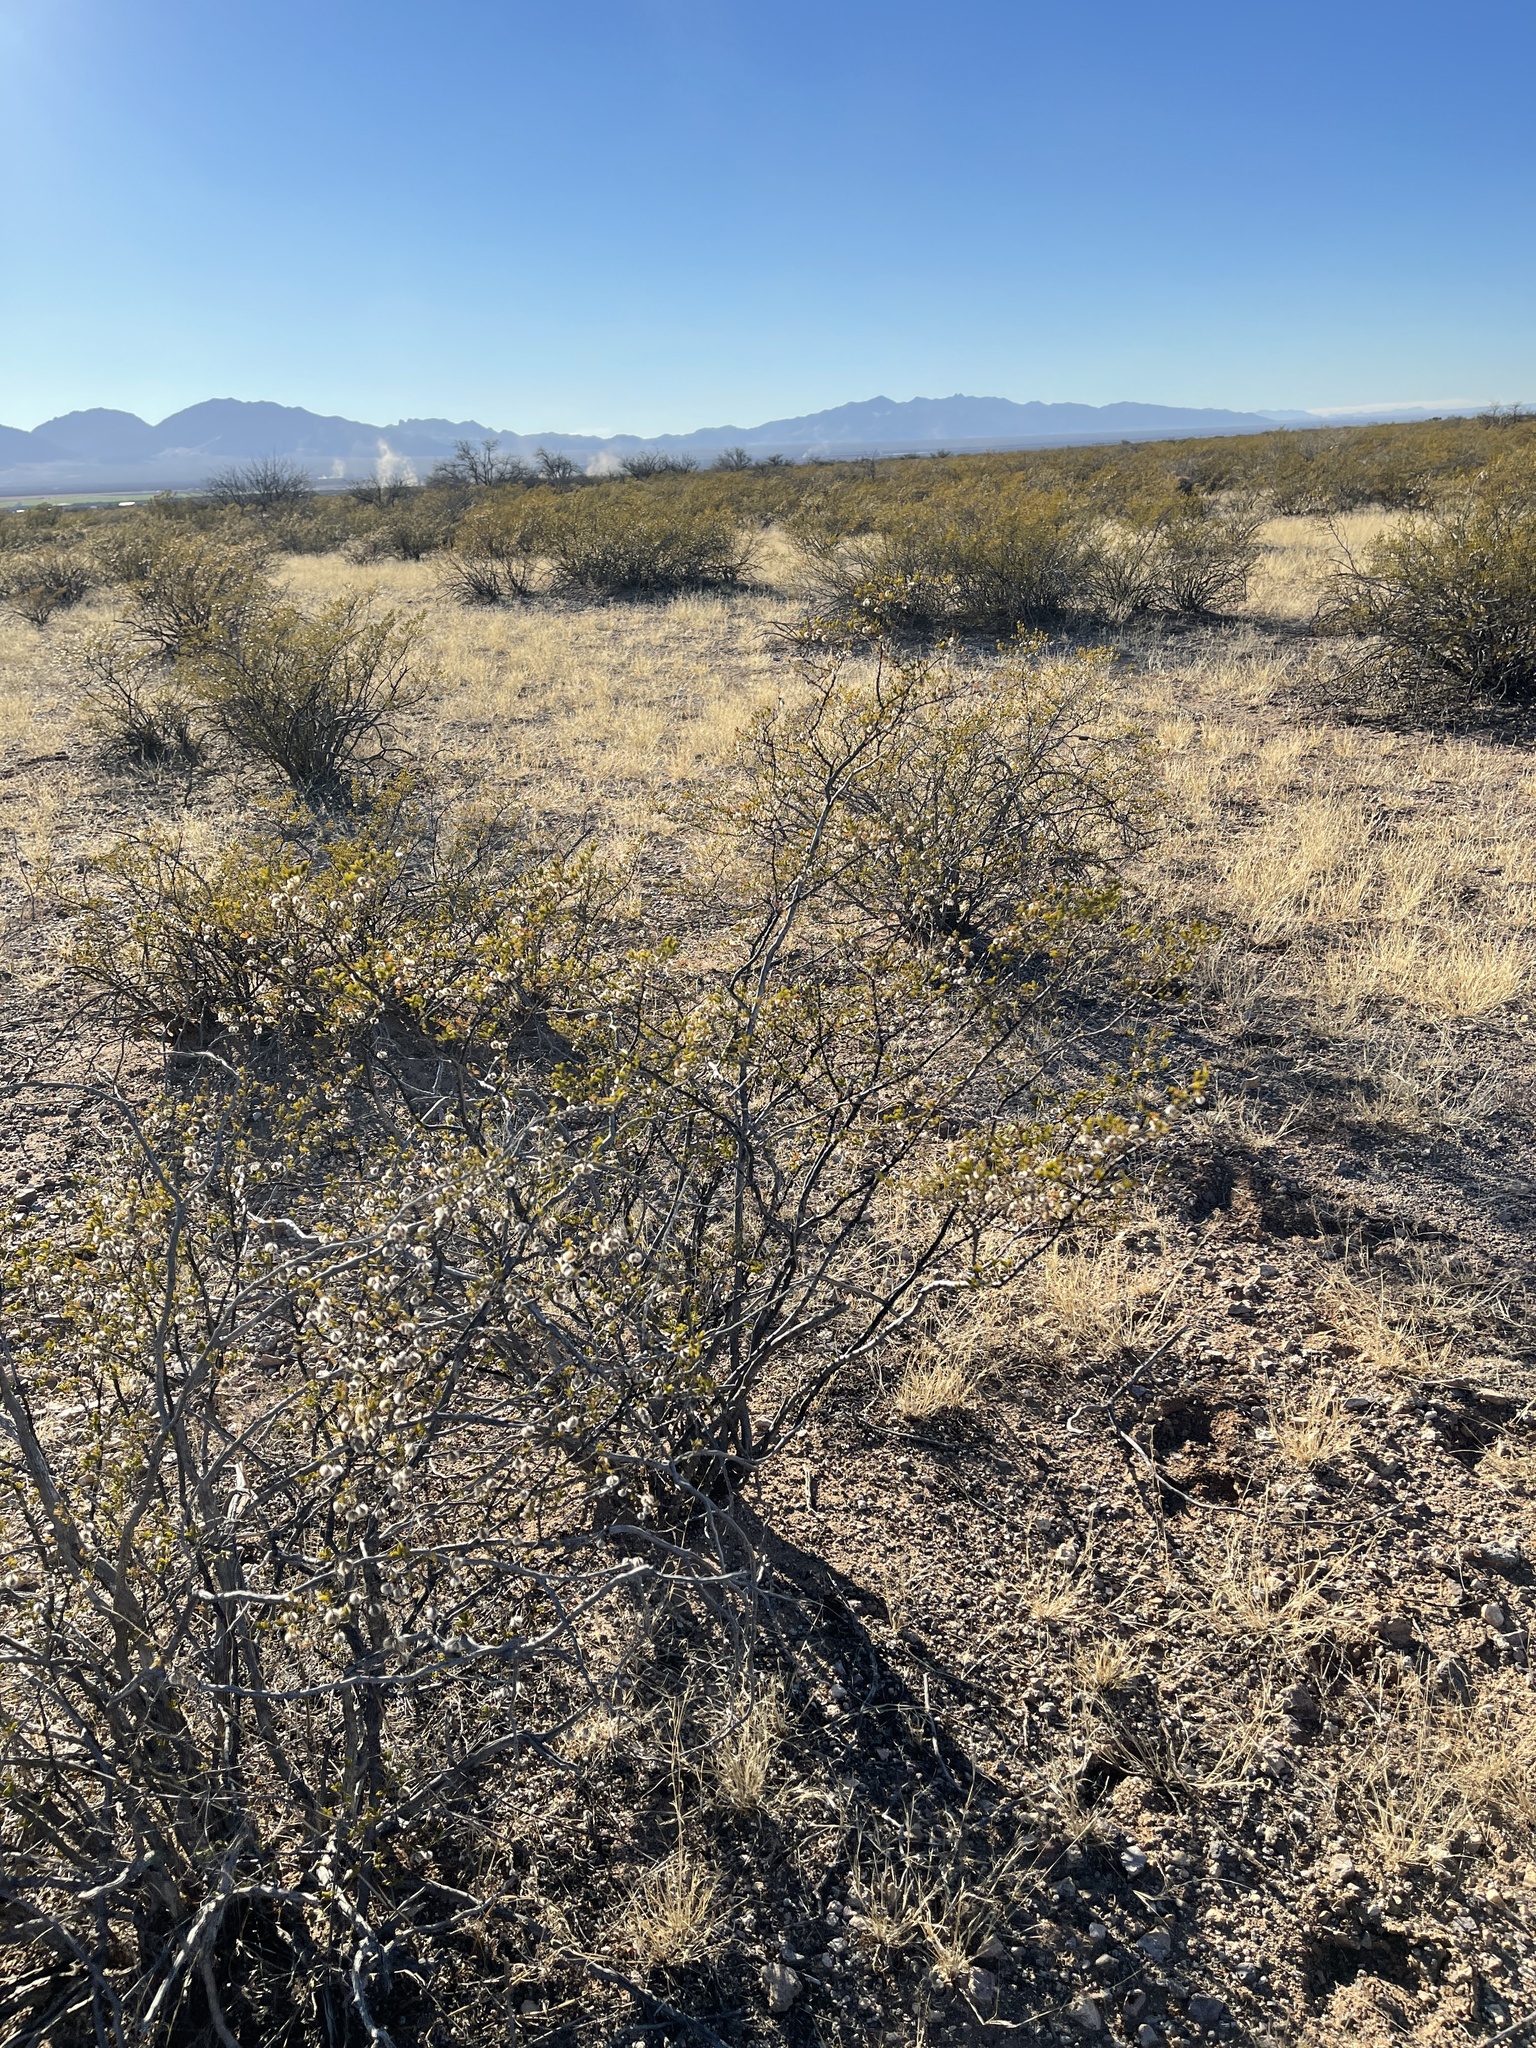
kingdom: Plantae
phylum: Tracheophyta
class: Magnoliopsida
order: Zygophyllales
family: Zygophyllaceae
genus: Larrea
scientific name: Larrea tridentata
